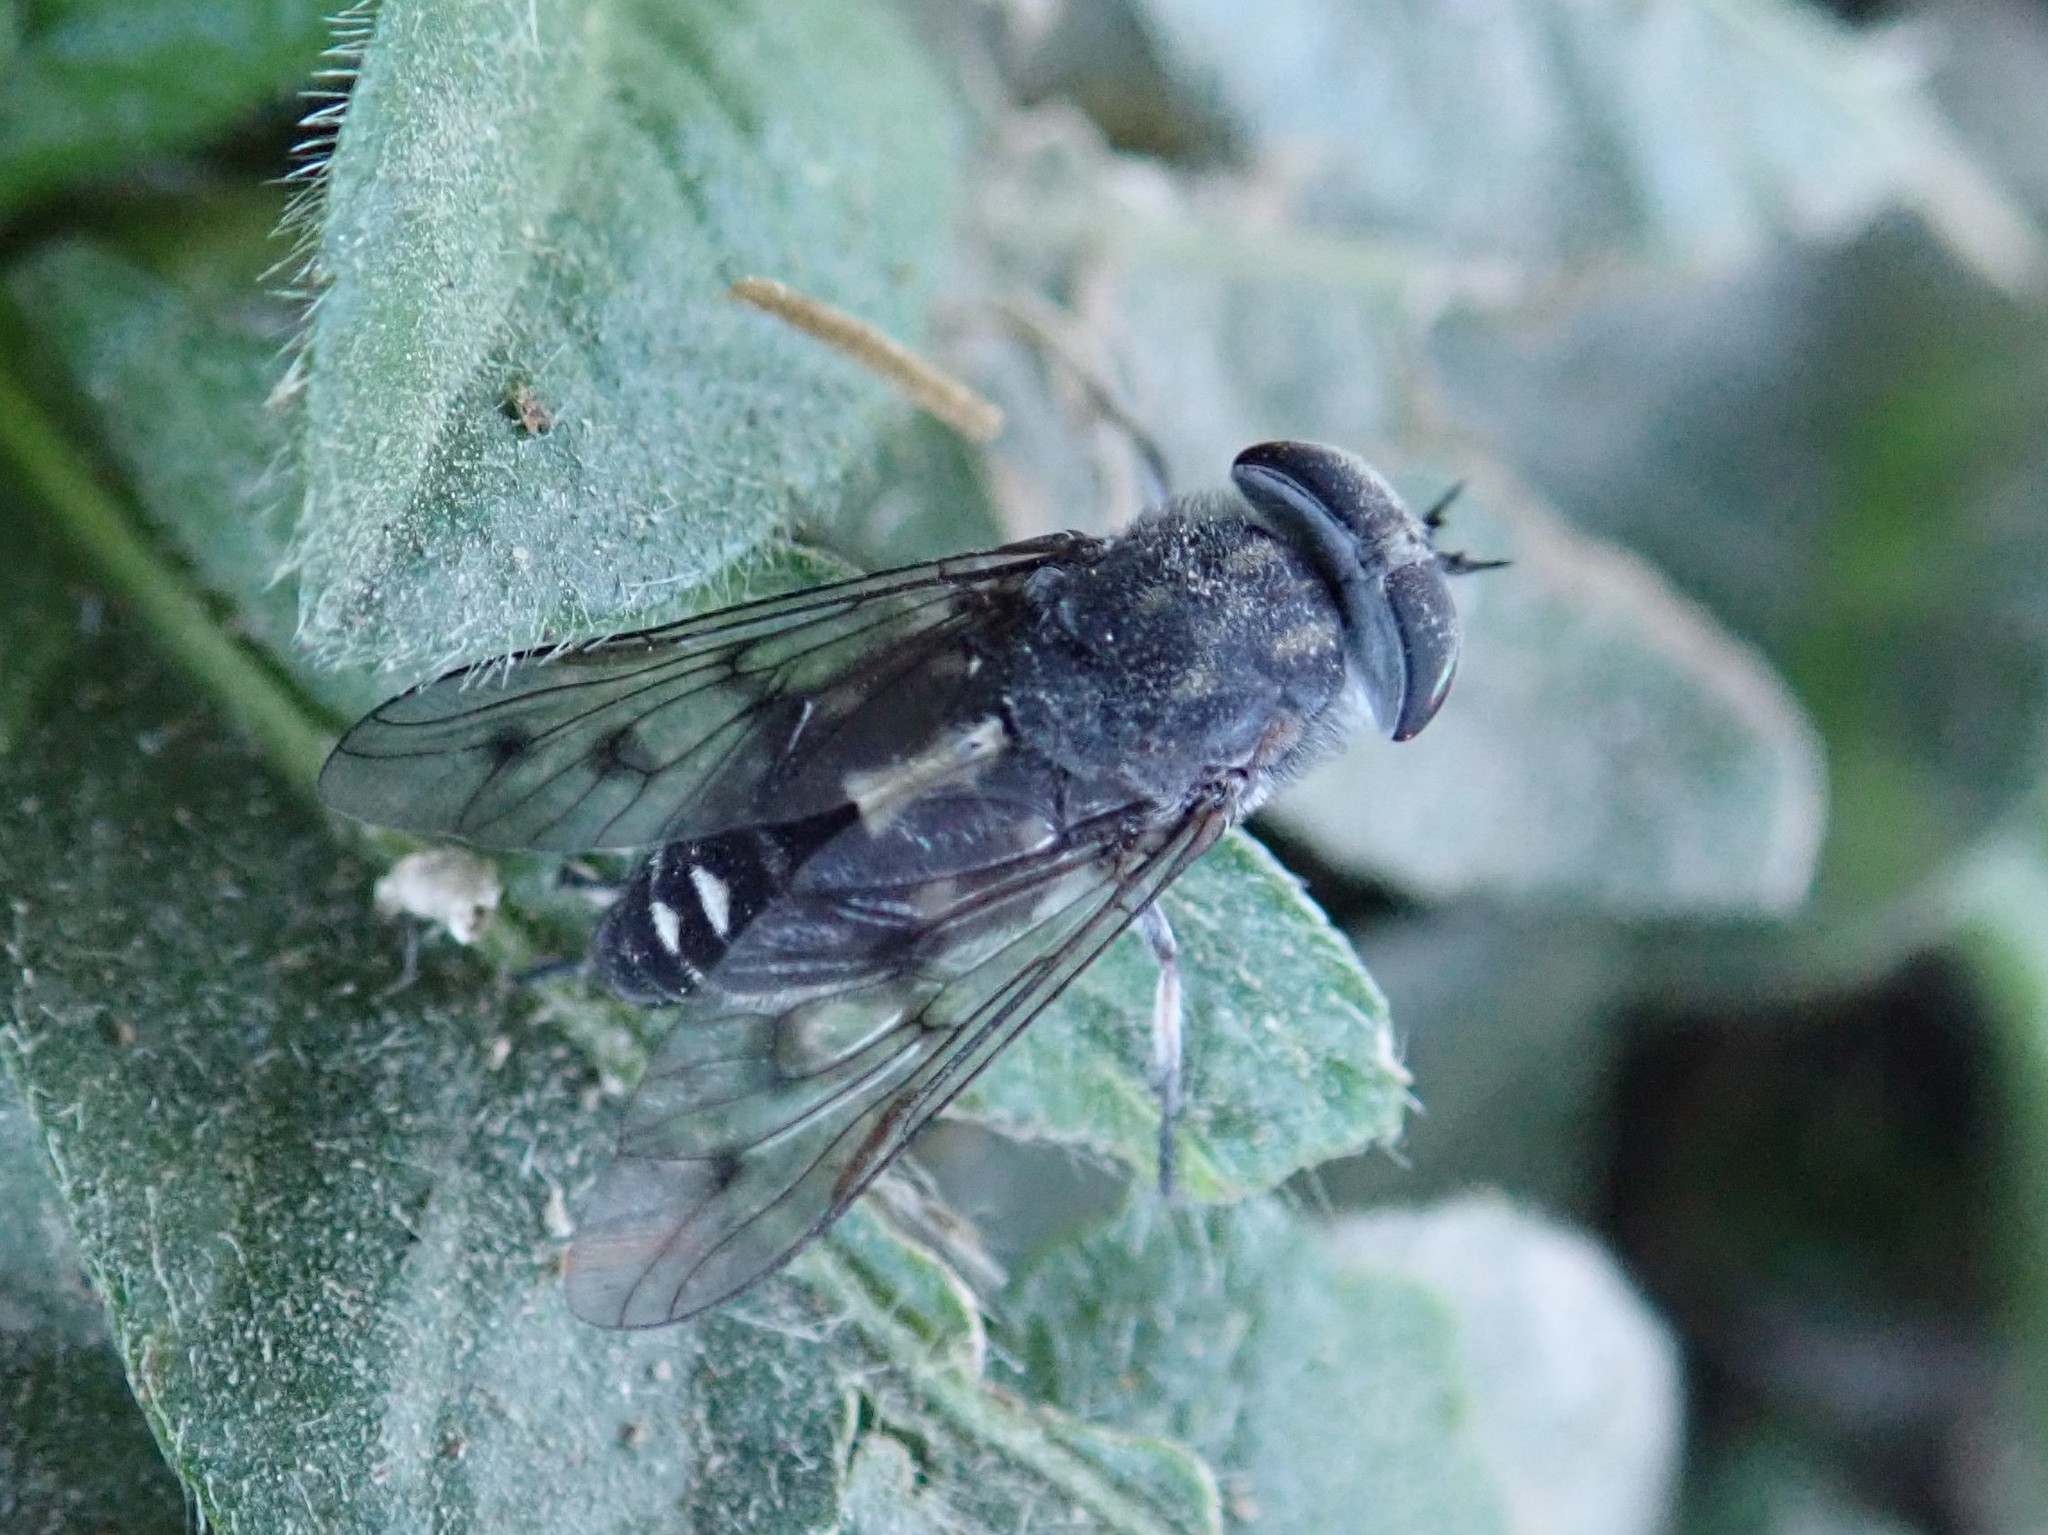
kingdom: Animalia
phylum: Arthropoda
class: Insecta
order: Diptera
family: Tabanidae
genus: Poeciloderas
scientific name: Poeciloderas quadripunctatus
